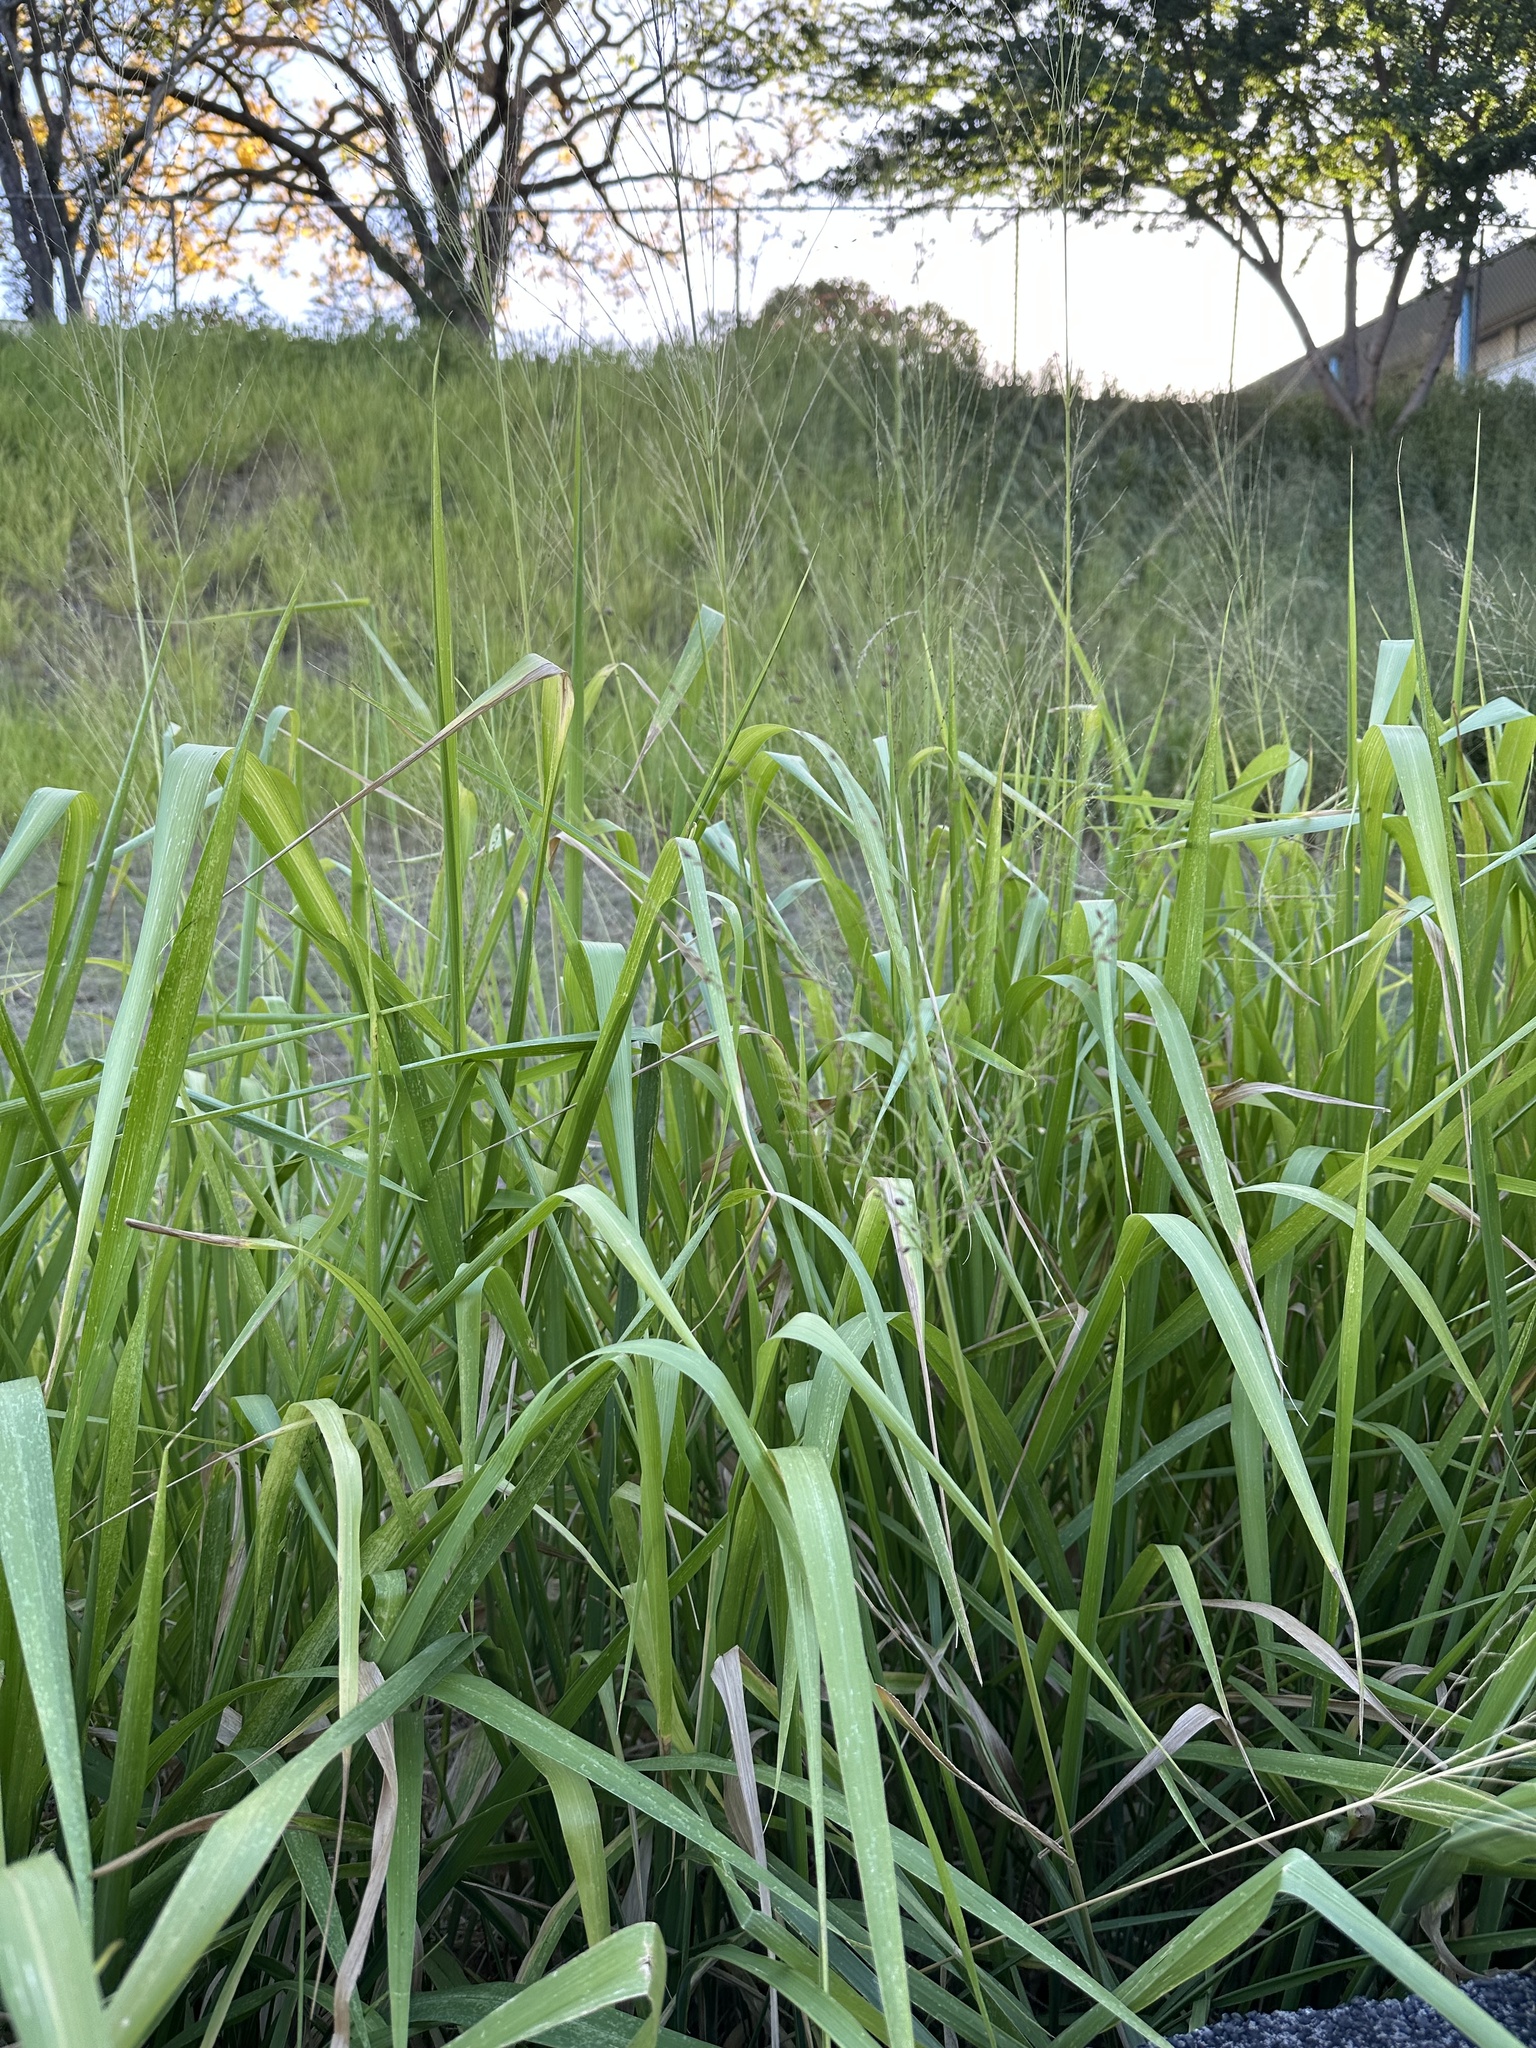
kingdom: Plantae
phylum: Tracheophyta
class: Liliopsida
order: Poales
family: Poaceae
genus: Megathyrsus
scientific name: Megathyrsus maximus
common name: Guineagrass
